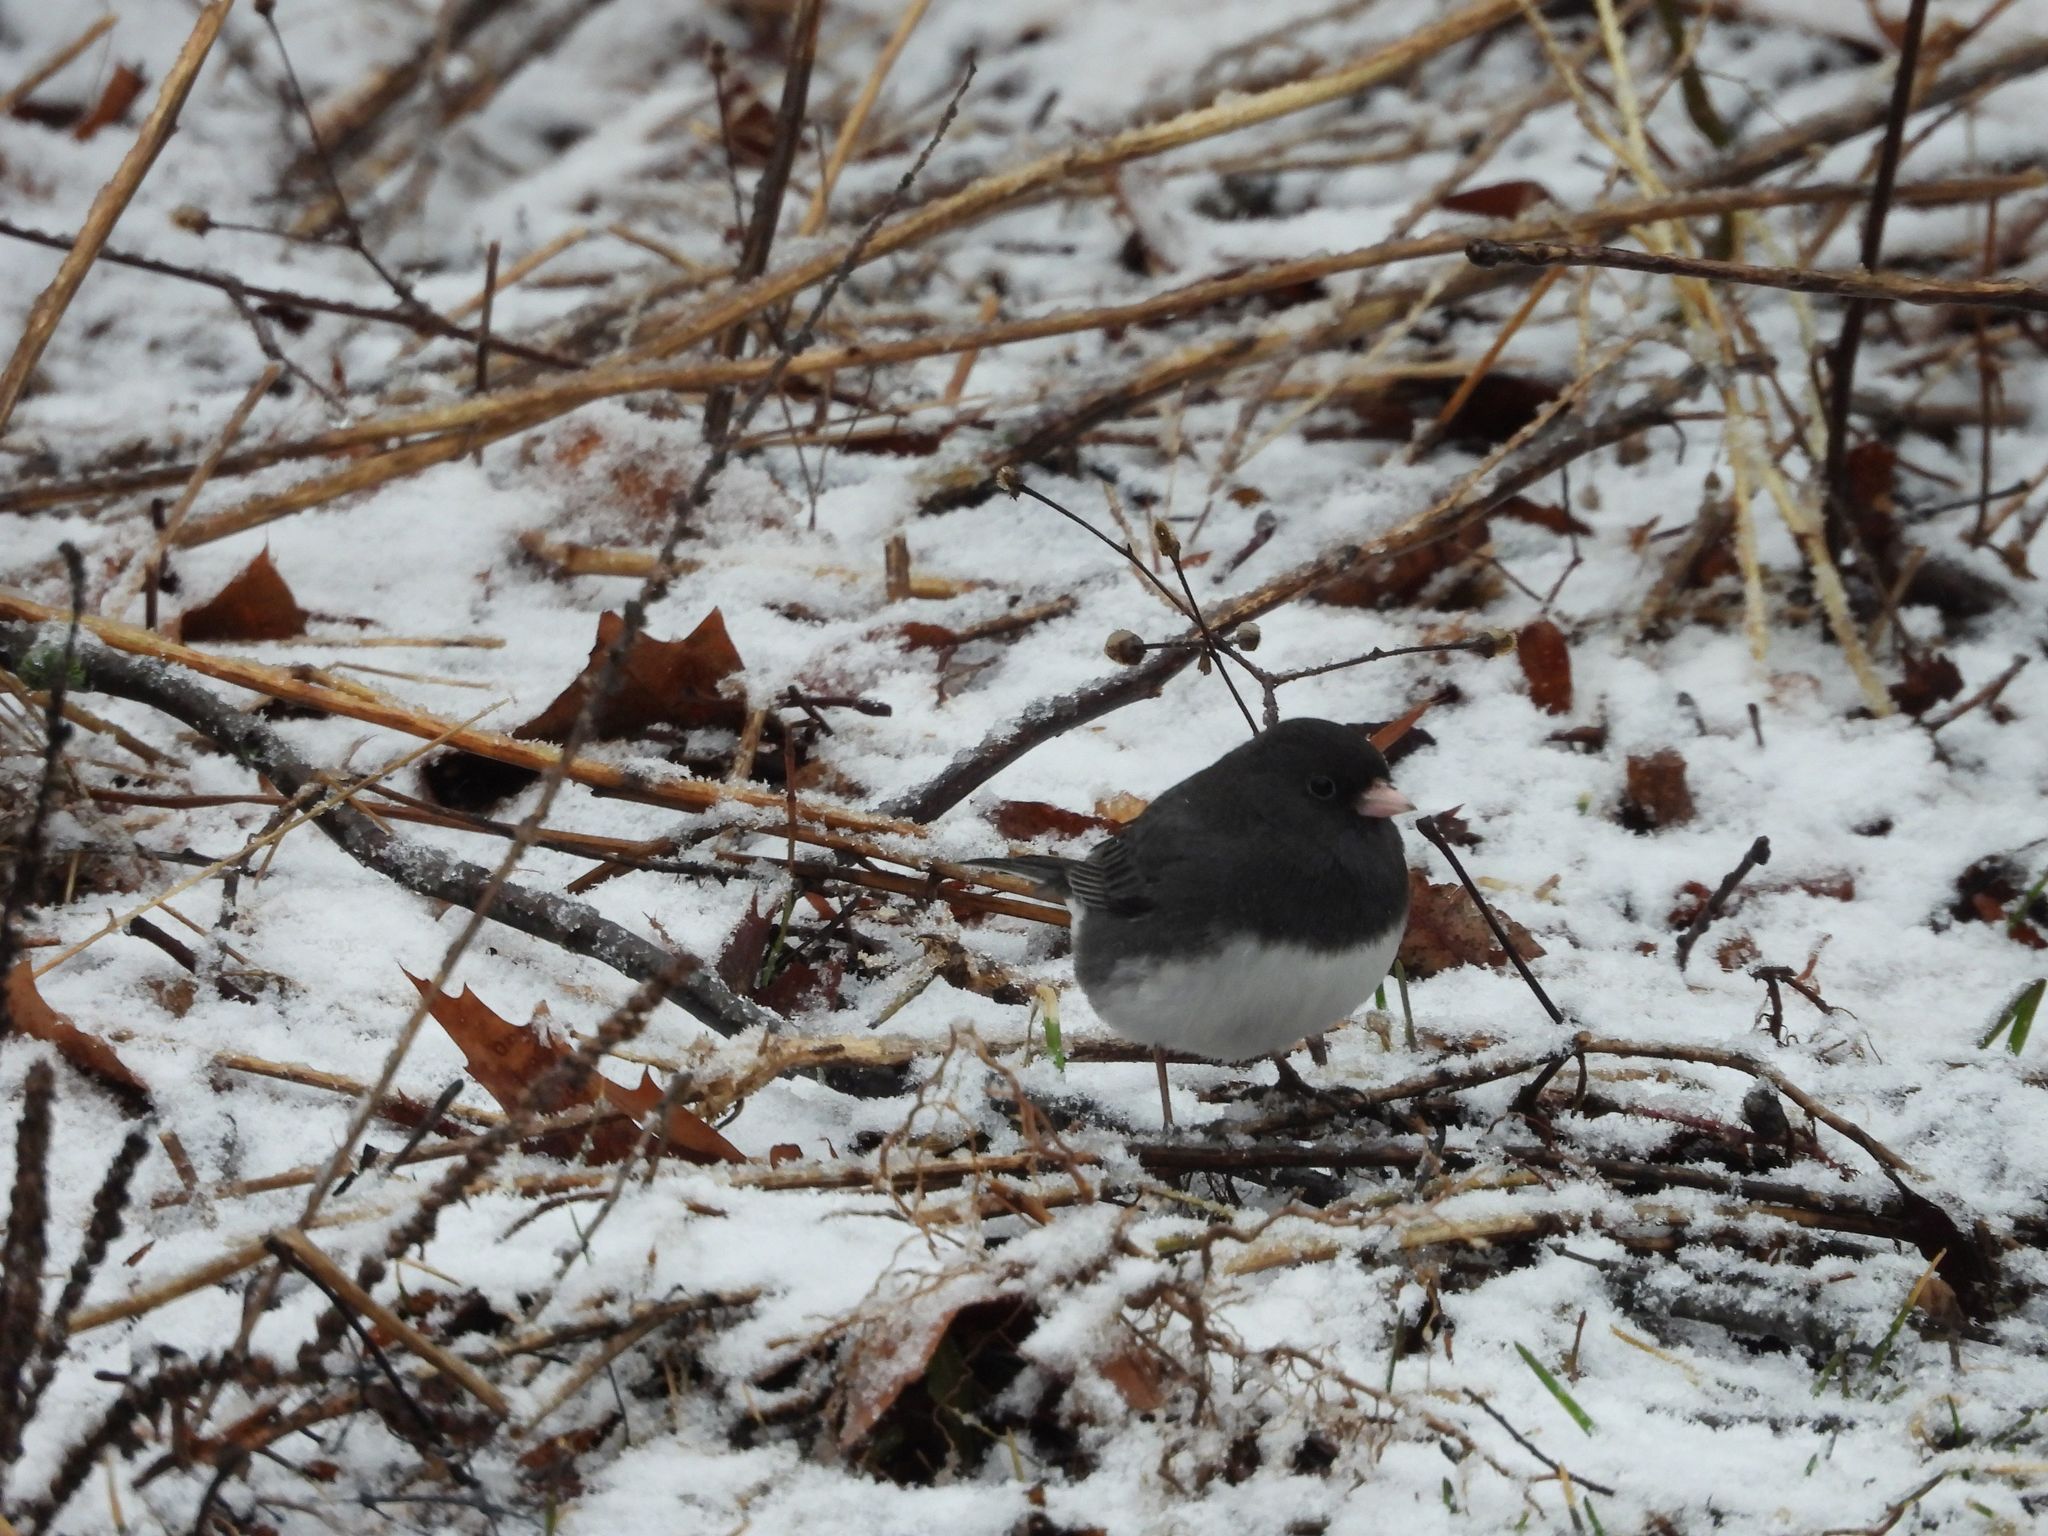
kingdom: Animalia
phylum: Chordata
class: Aves
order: Passeriformes
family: Passerellidae
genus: Junco
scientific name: Junco hyemalis
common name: Dark-eyed junco
